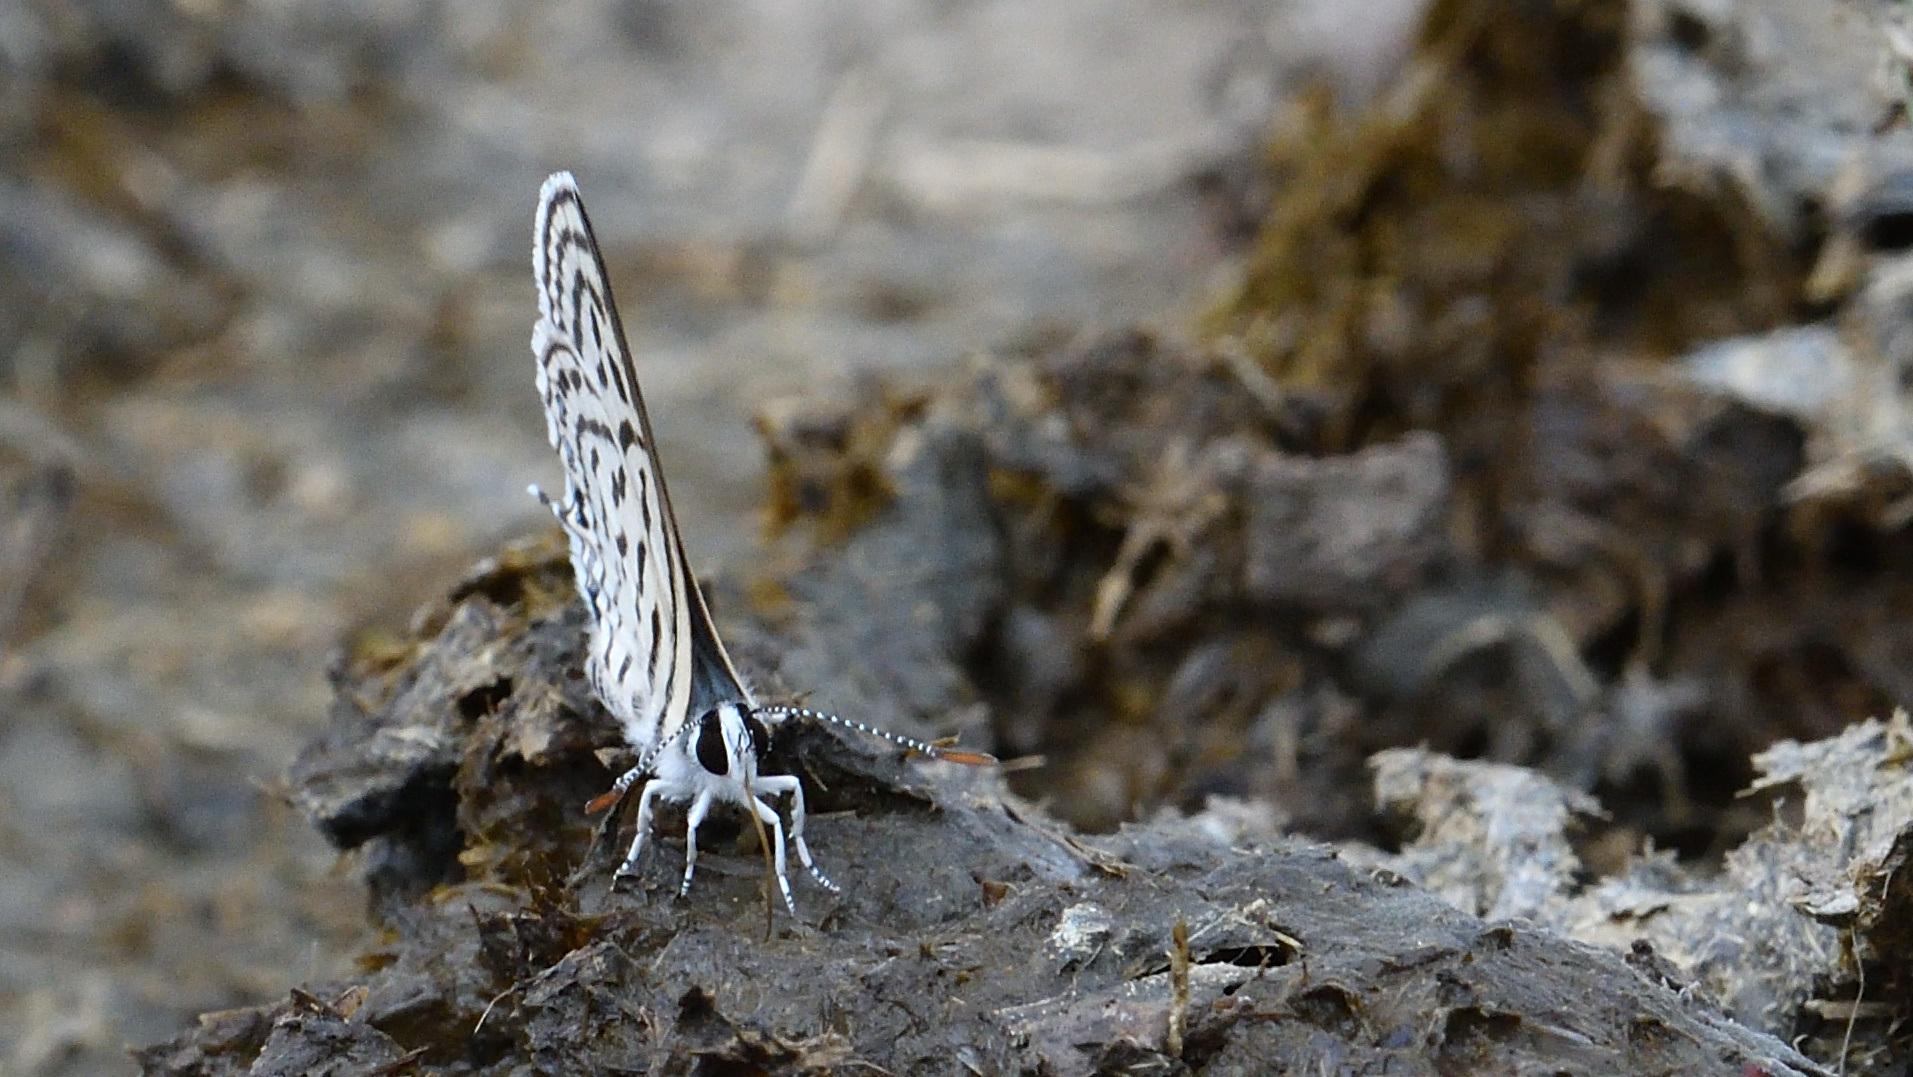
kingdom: Animalia
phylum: Arthropoda
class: Insecta
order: Lepidoptera
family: Lycaenidae
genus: Tarucus
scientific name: Tarucus nara
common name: Striped pierrot
